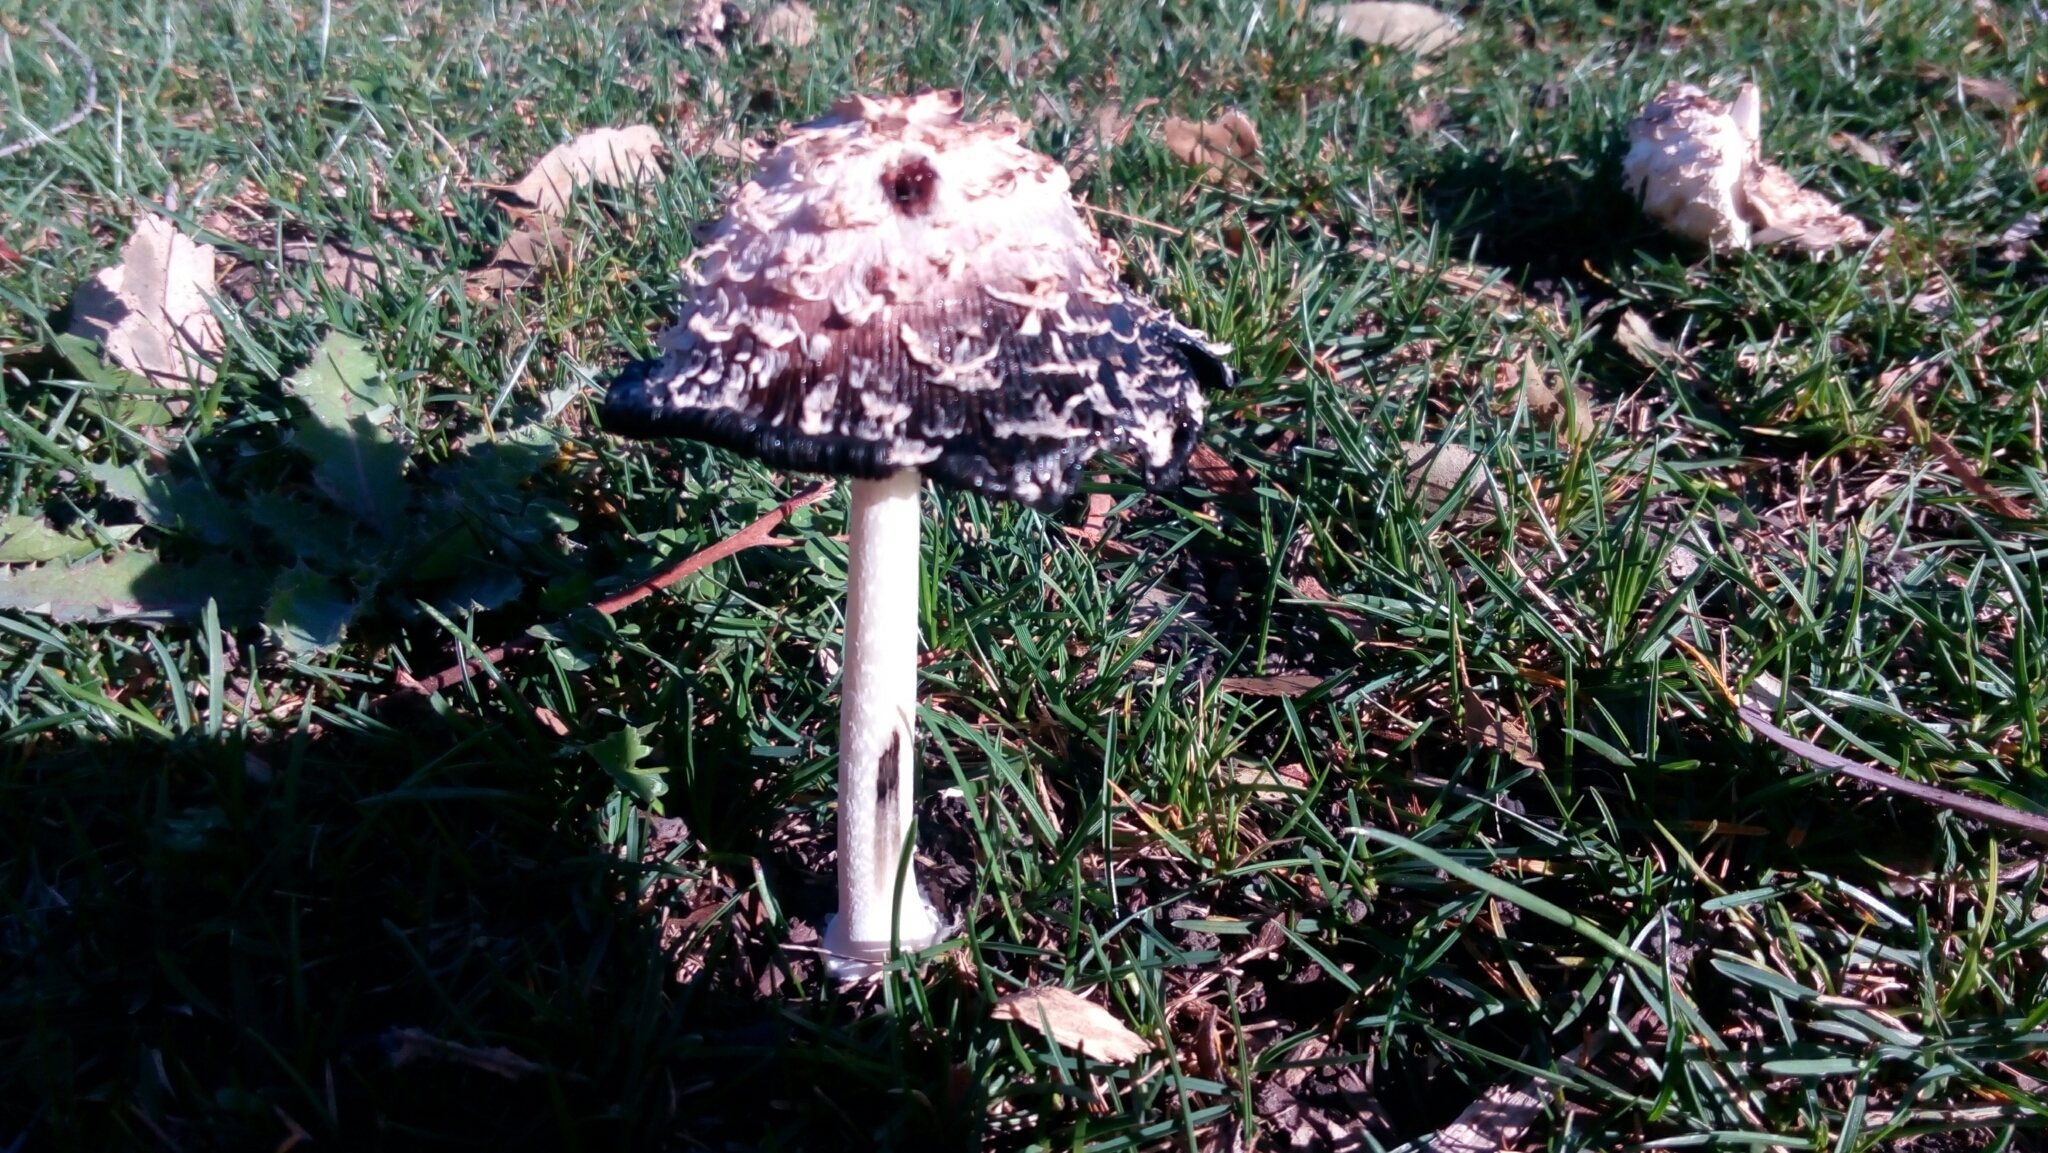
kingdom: Fungi
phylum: Basidiomycota
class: Agaricomycetes
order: Agaricales
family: Agaricaceae
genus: Coprinus
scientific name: Coprinus comatus
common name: Lawyer's wig
